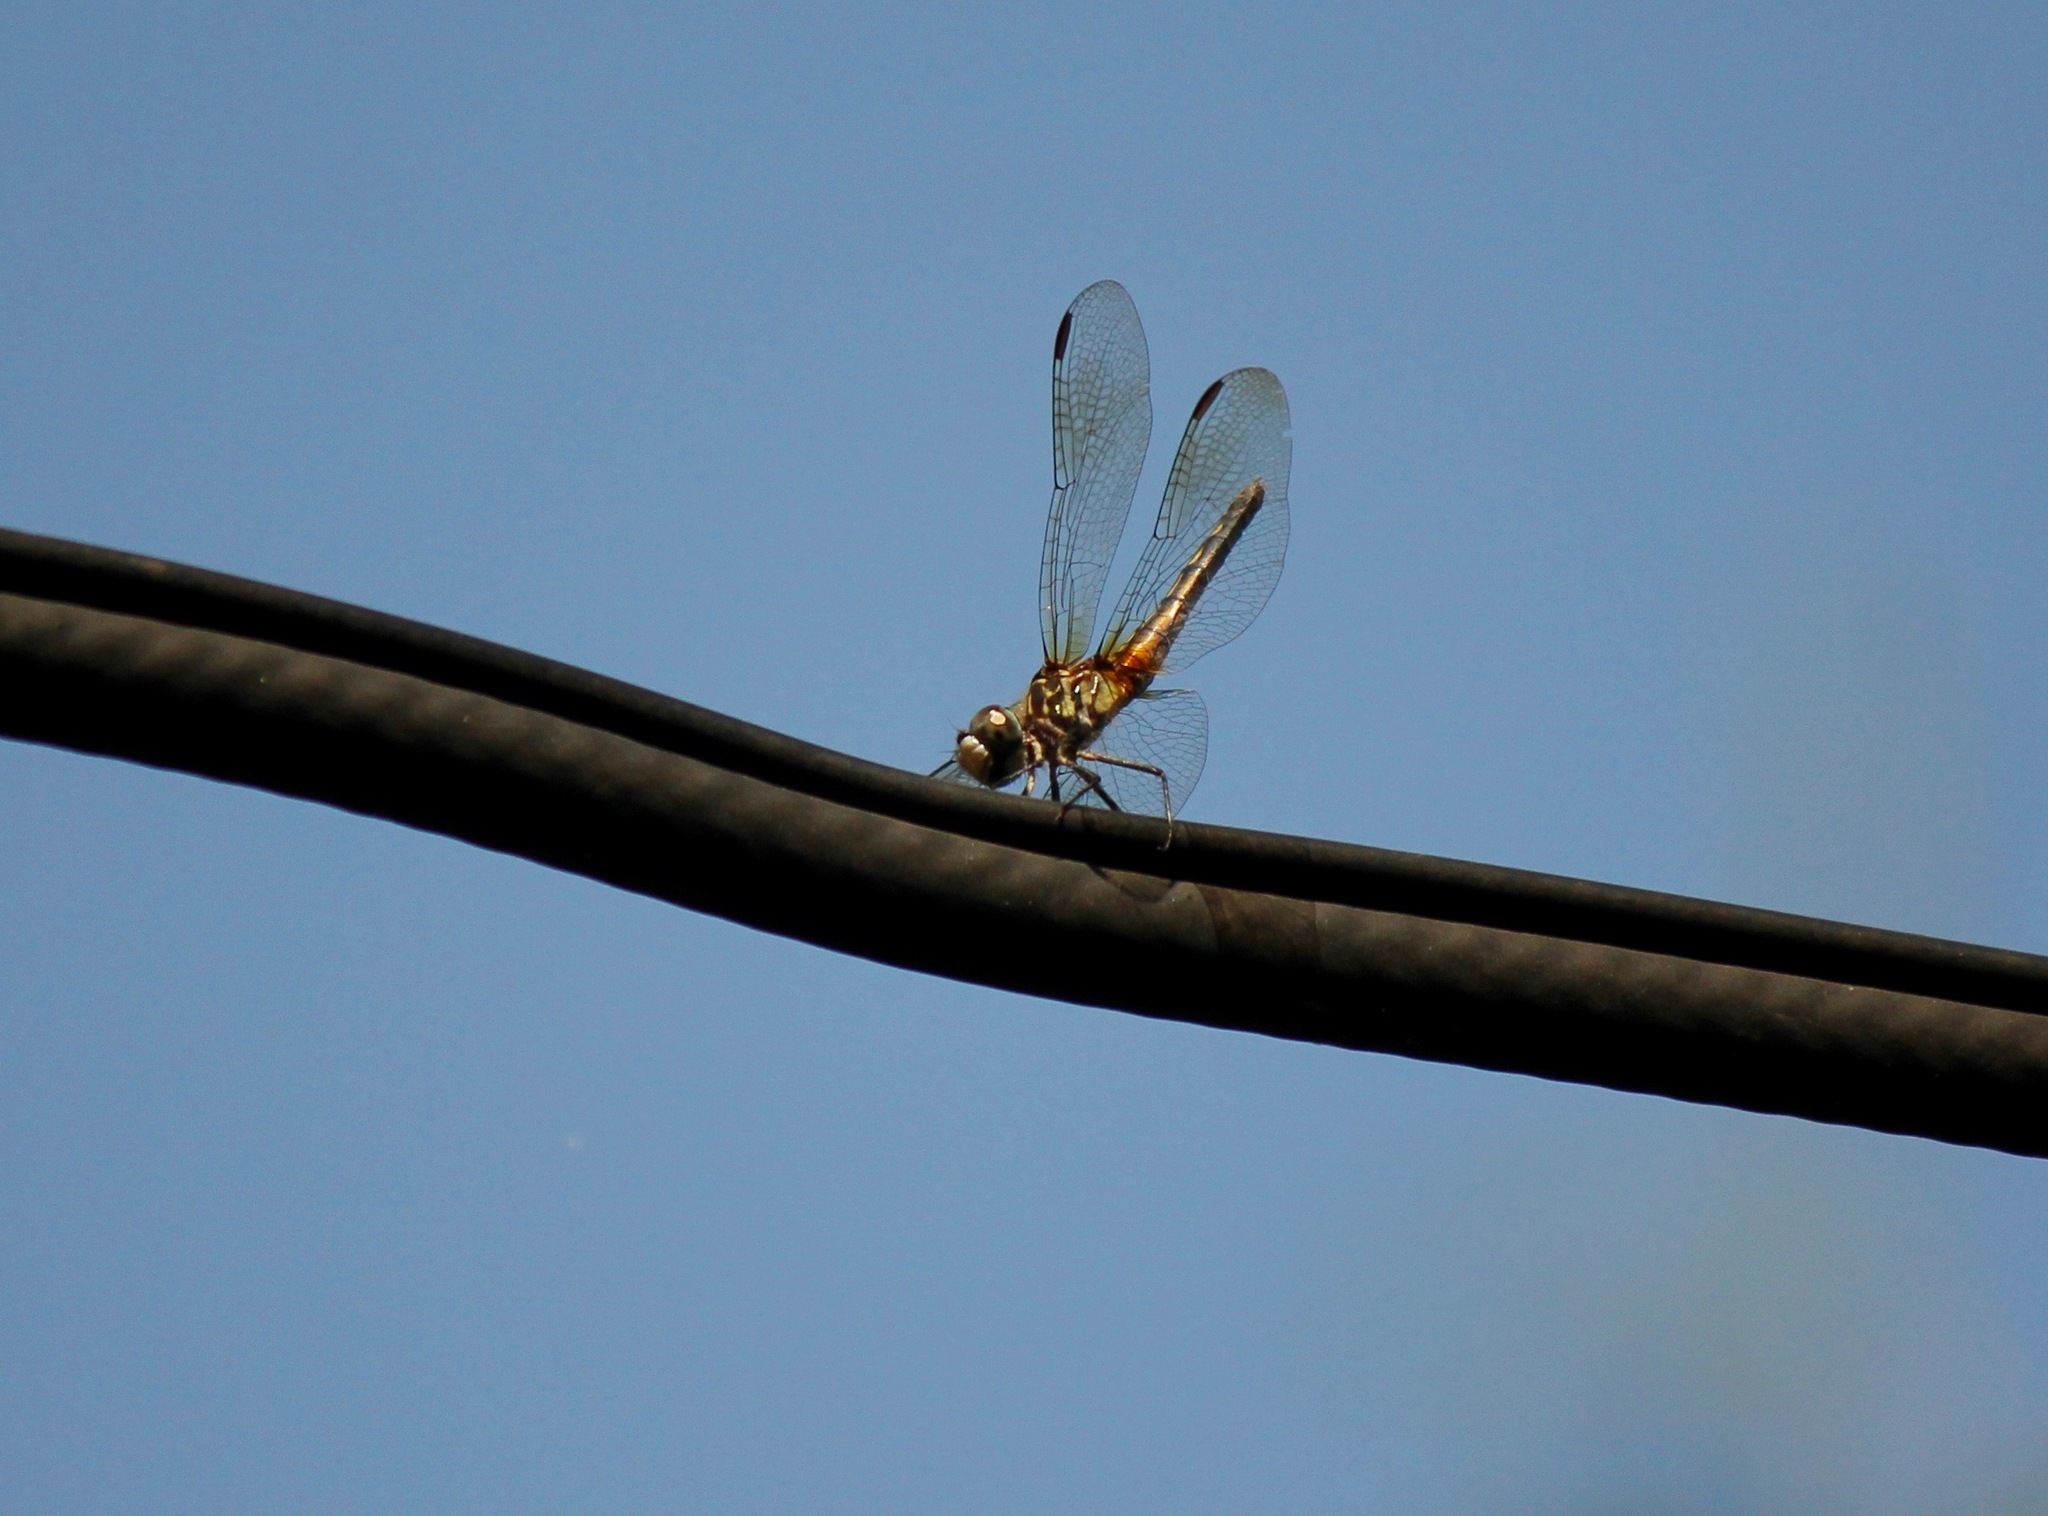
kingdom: Animalia
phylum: Arthropoda
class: Insecta
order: Odonata
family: Libellulidae
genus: Pachydiplax
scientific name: Pachydiplax longipennis
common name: Blue dasher
